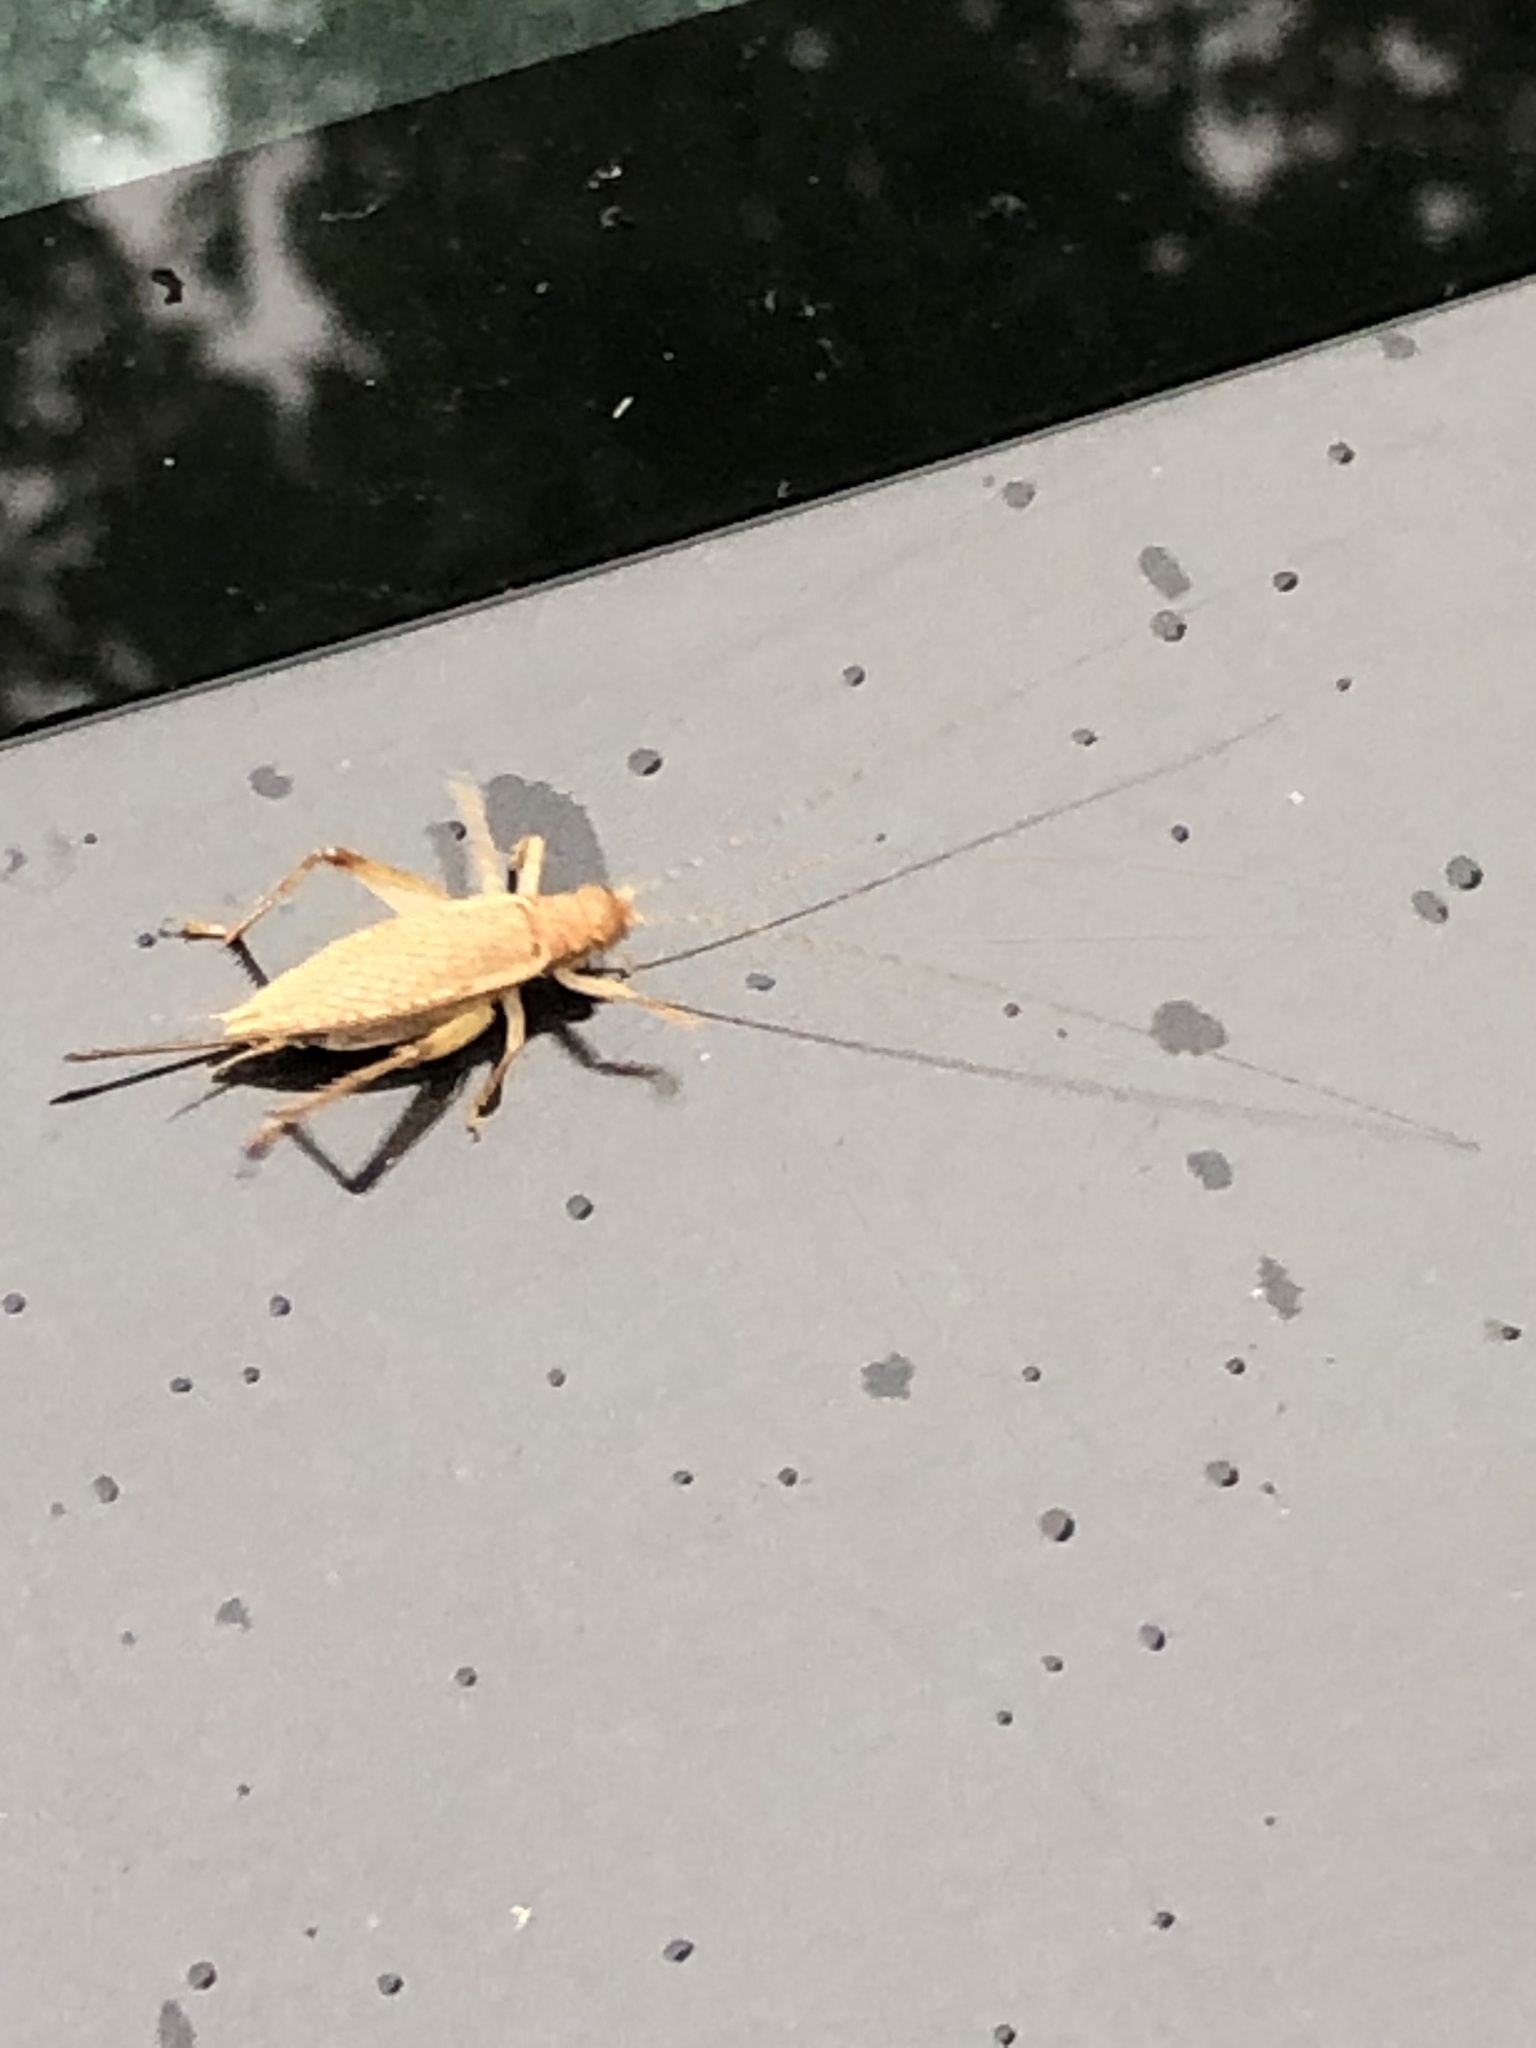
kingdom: Animalia
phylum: Arthropoda
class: Insecta
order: Orthoptera
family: Gryllidae
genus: Hapithus
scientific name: Hapithus saltator
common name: Jumping bush cricket
